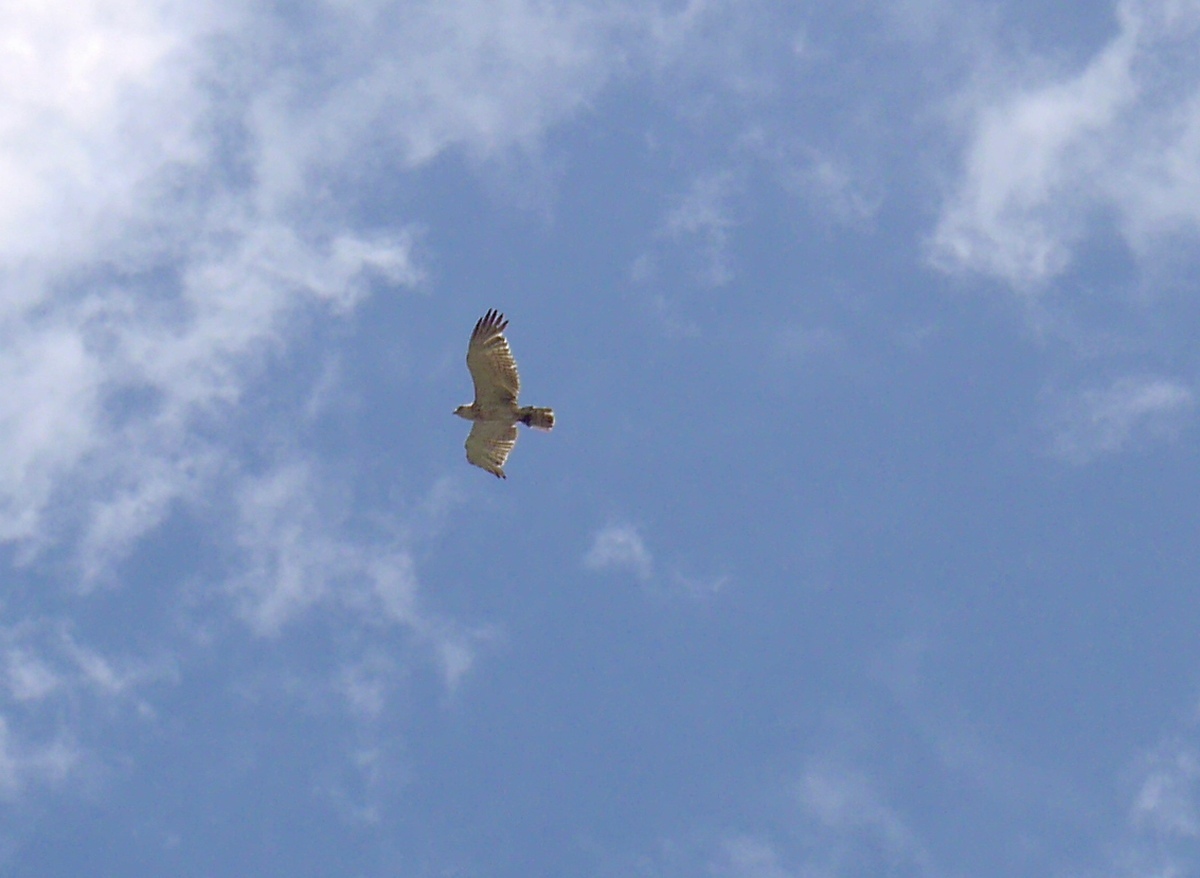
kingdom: Animalia
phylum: Chordata
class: Aves
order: Accipitriformes
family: Accipitridae
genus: Circaetus
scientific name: Circaetus gallicus
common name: Short-toed snake eagle
